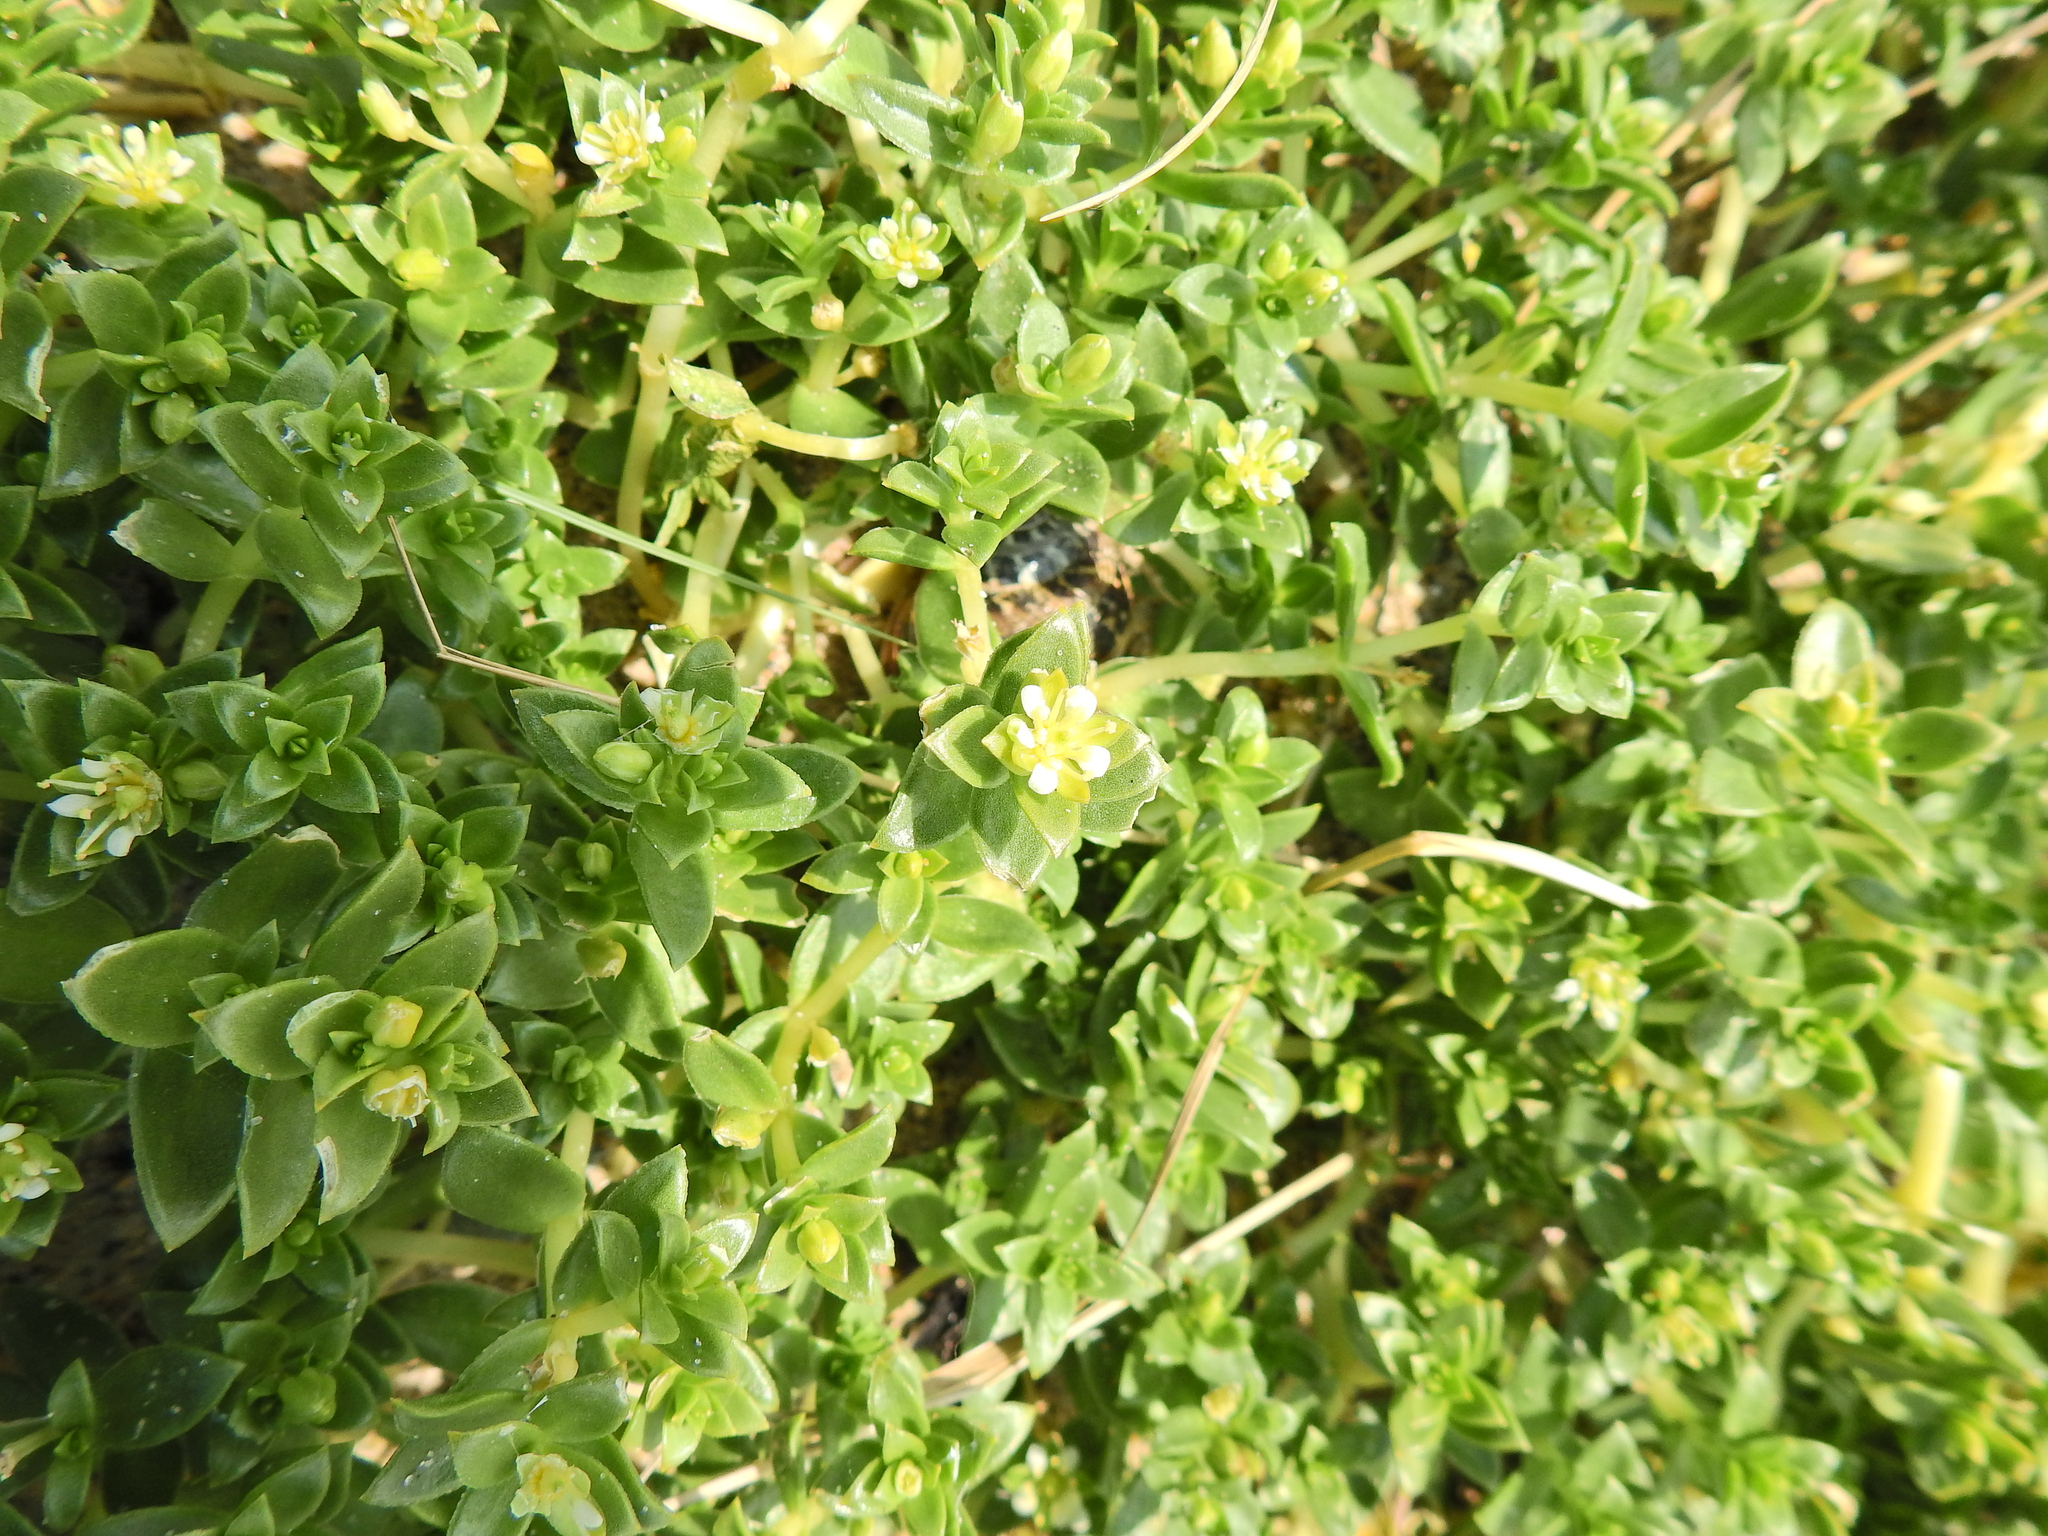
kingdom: Plantae
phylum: Tracheophyta
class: Magnoliopsida
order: Caryophyllales
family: Caryophyllaceae
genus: Honckenya
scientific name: Honckenya peploides
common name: Sea sandwort
